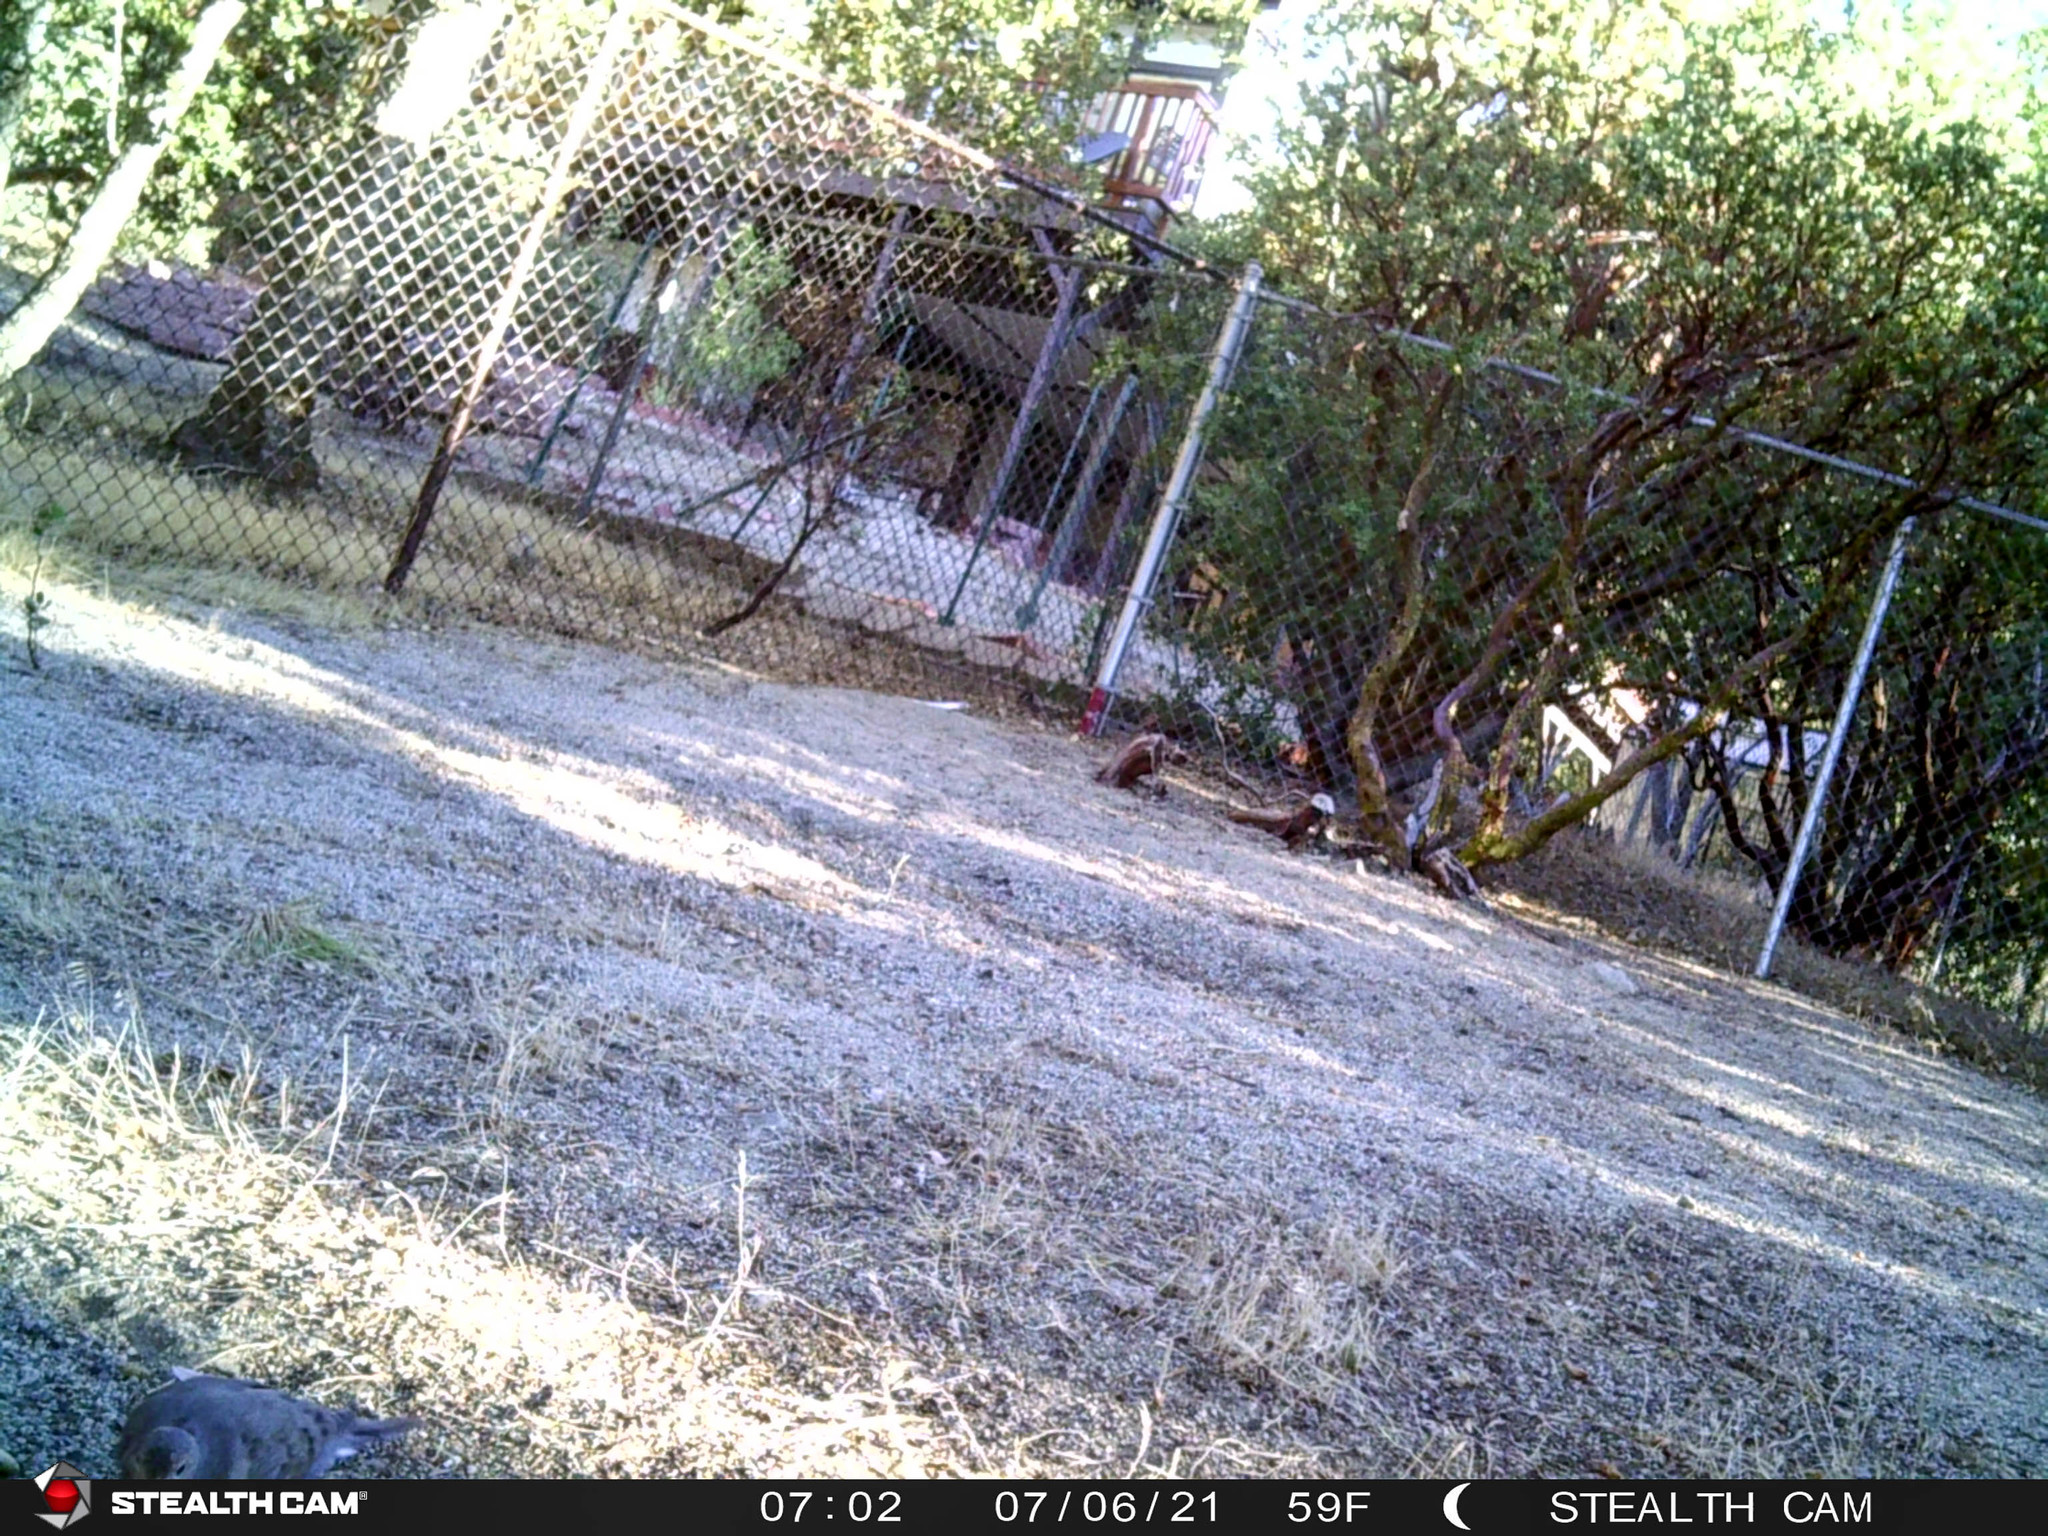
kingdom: Animalia
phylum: Chordata
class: Aves
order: Columbiformes
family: Columbidae
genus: Zenaida
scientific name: Zenaida macroura
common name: Mourning dove
